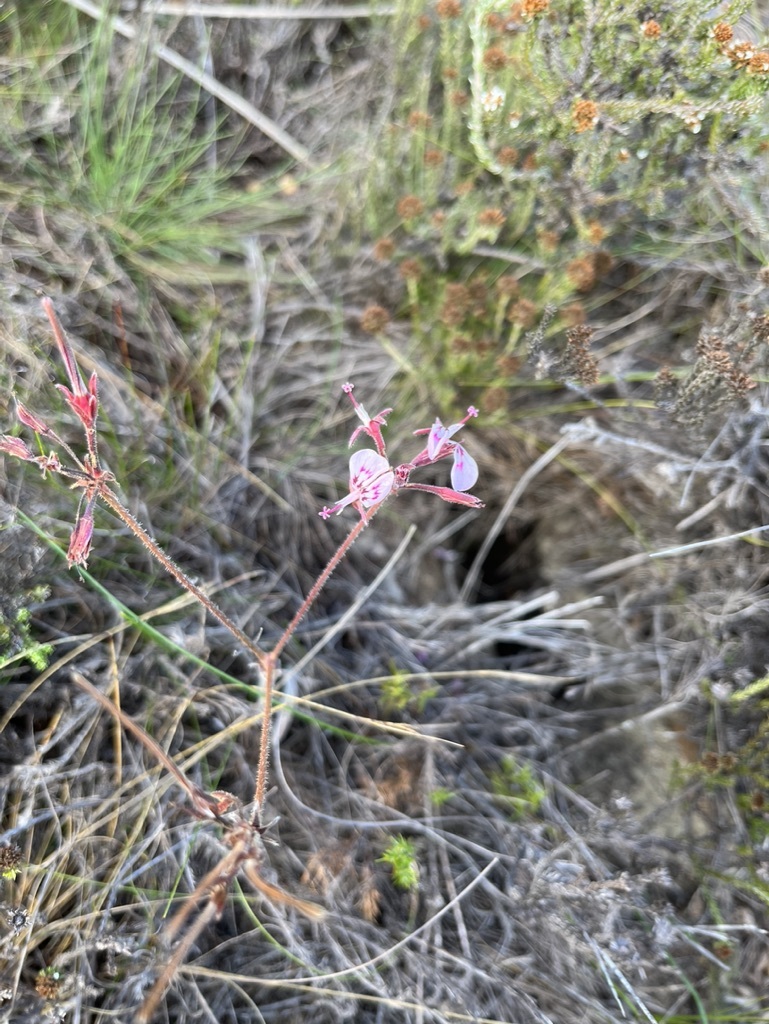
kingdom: Plantae
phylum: Tracheophyta
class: Magnoliopsida
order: Geraniales
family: Geraniaceae
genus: Pelargonium
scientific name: Pelargonium dipetalum
